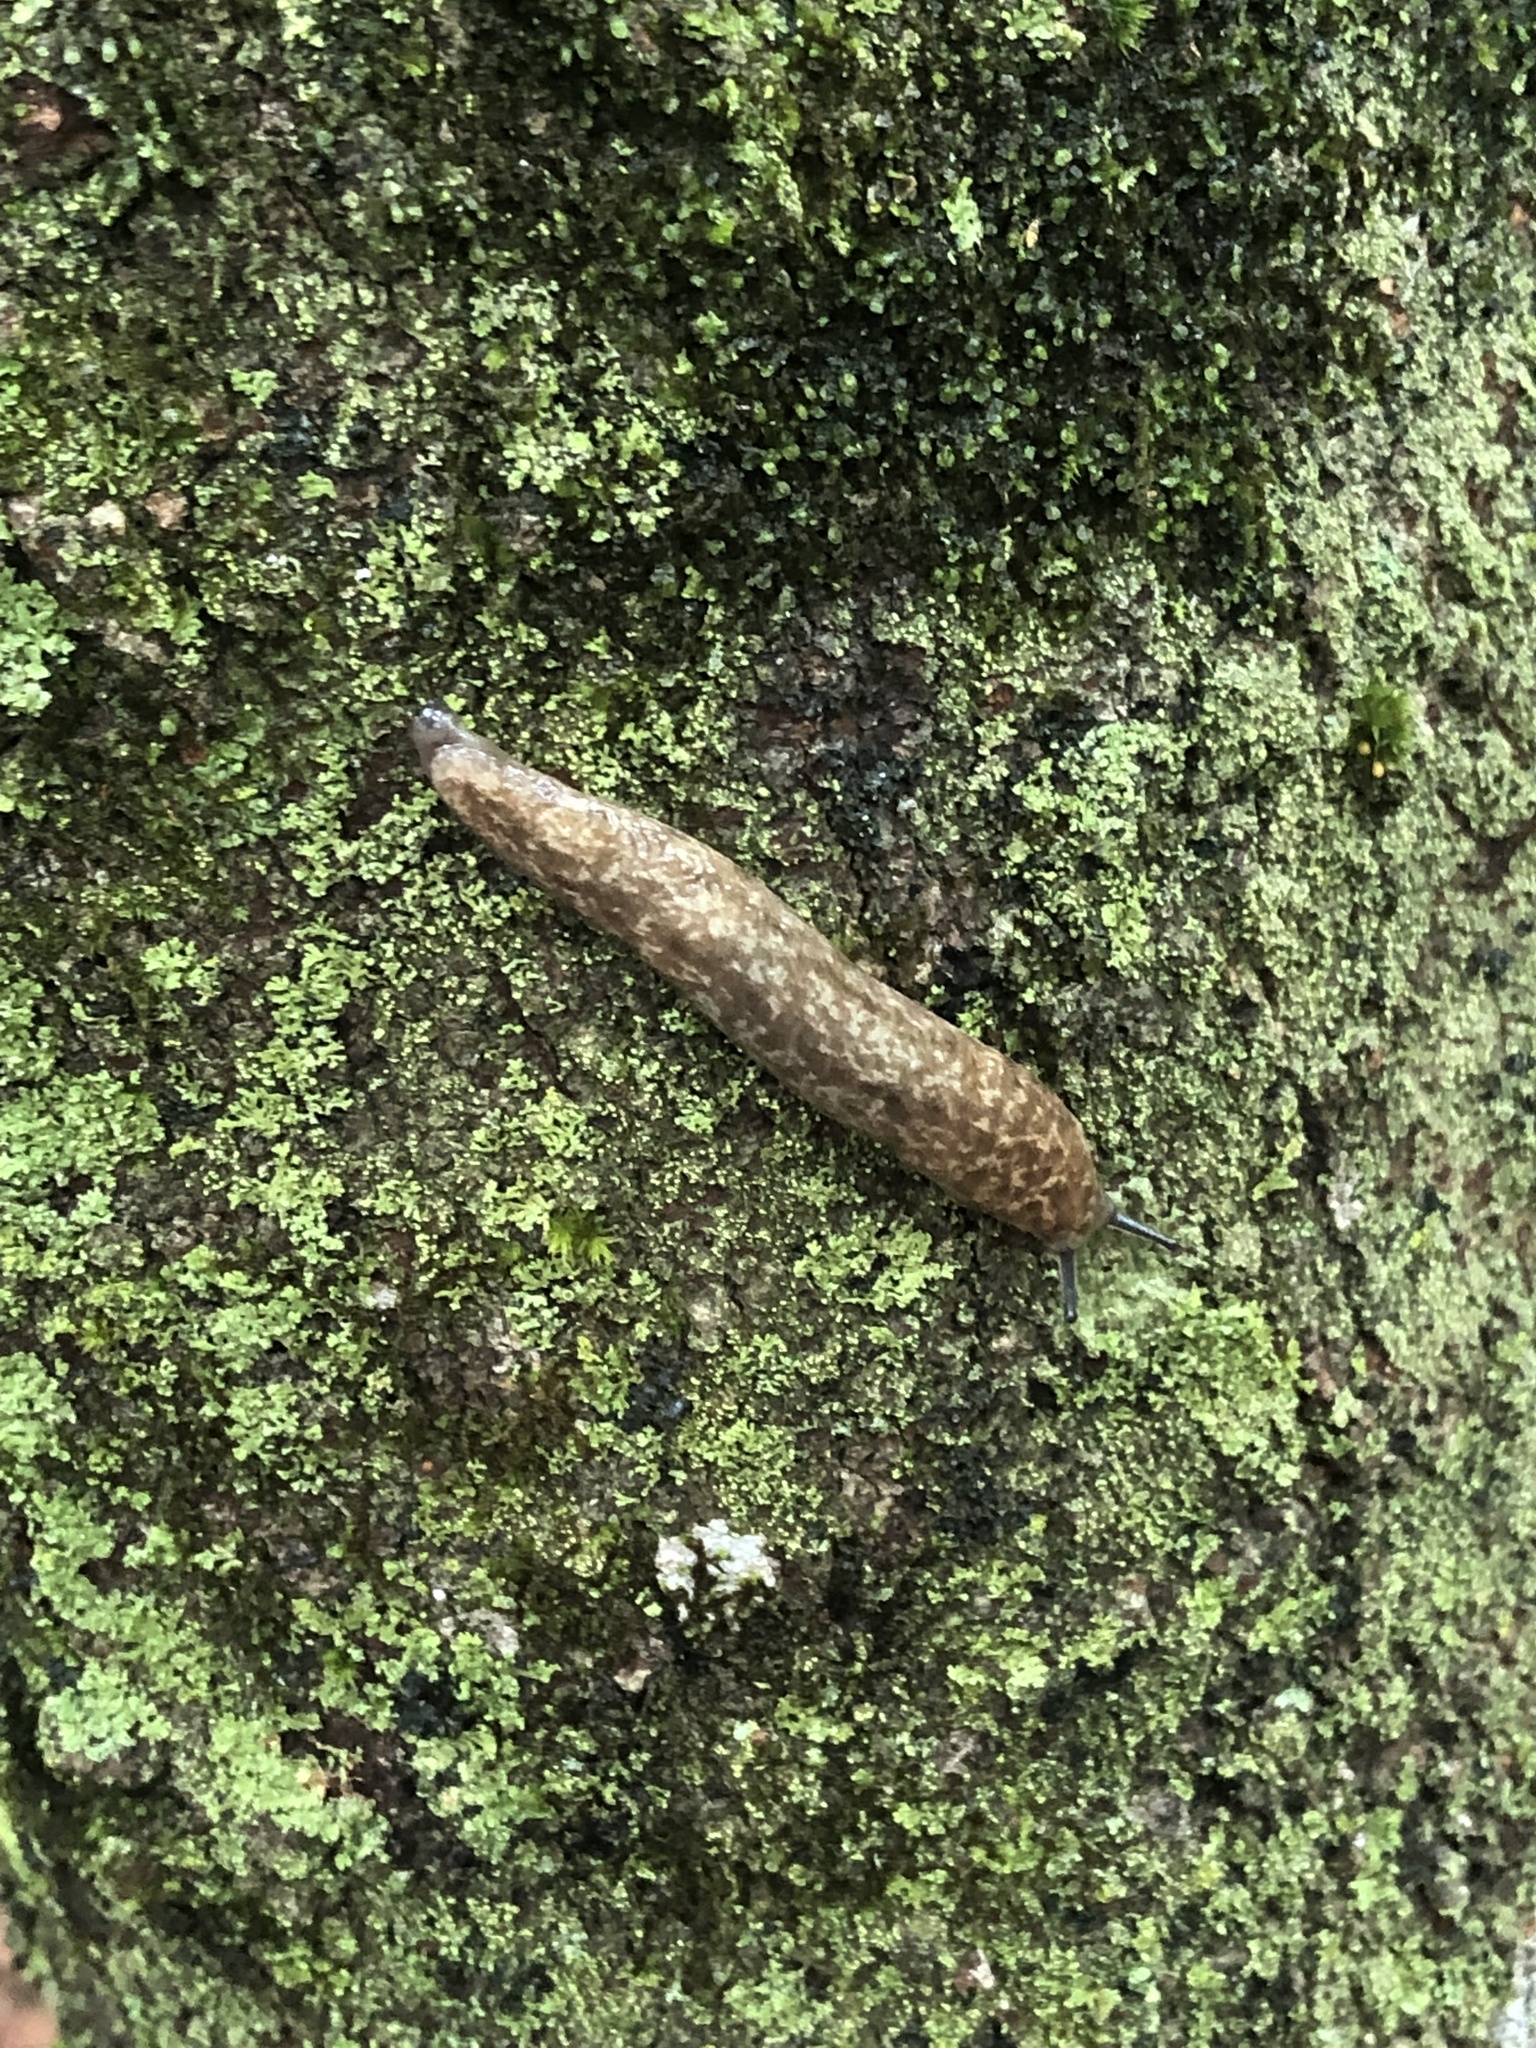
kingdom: Animalia
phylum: Mollusca
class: Gastropoda
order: Stylommatophora
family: Philomycidae
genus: Philomycus
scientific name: Philomycus flexuolaris
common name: Winding mantleslug
